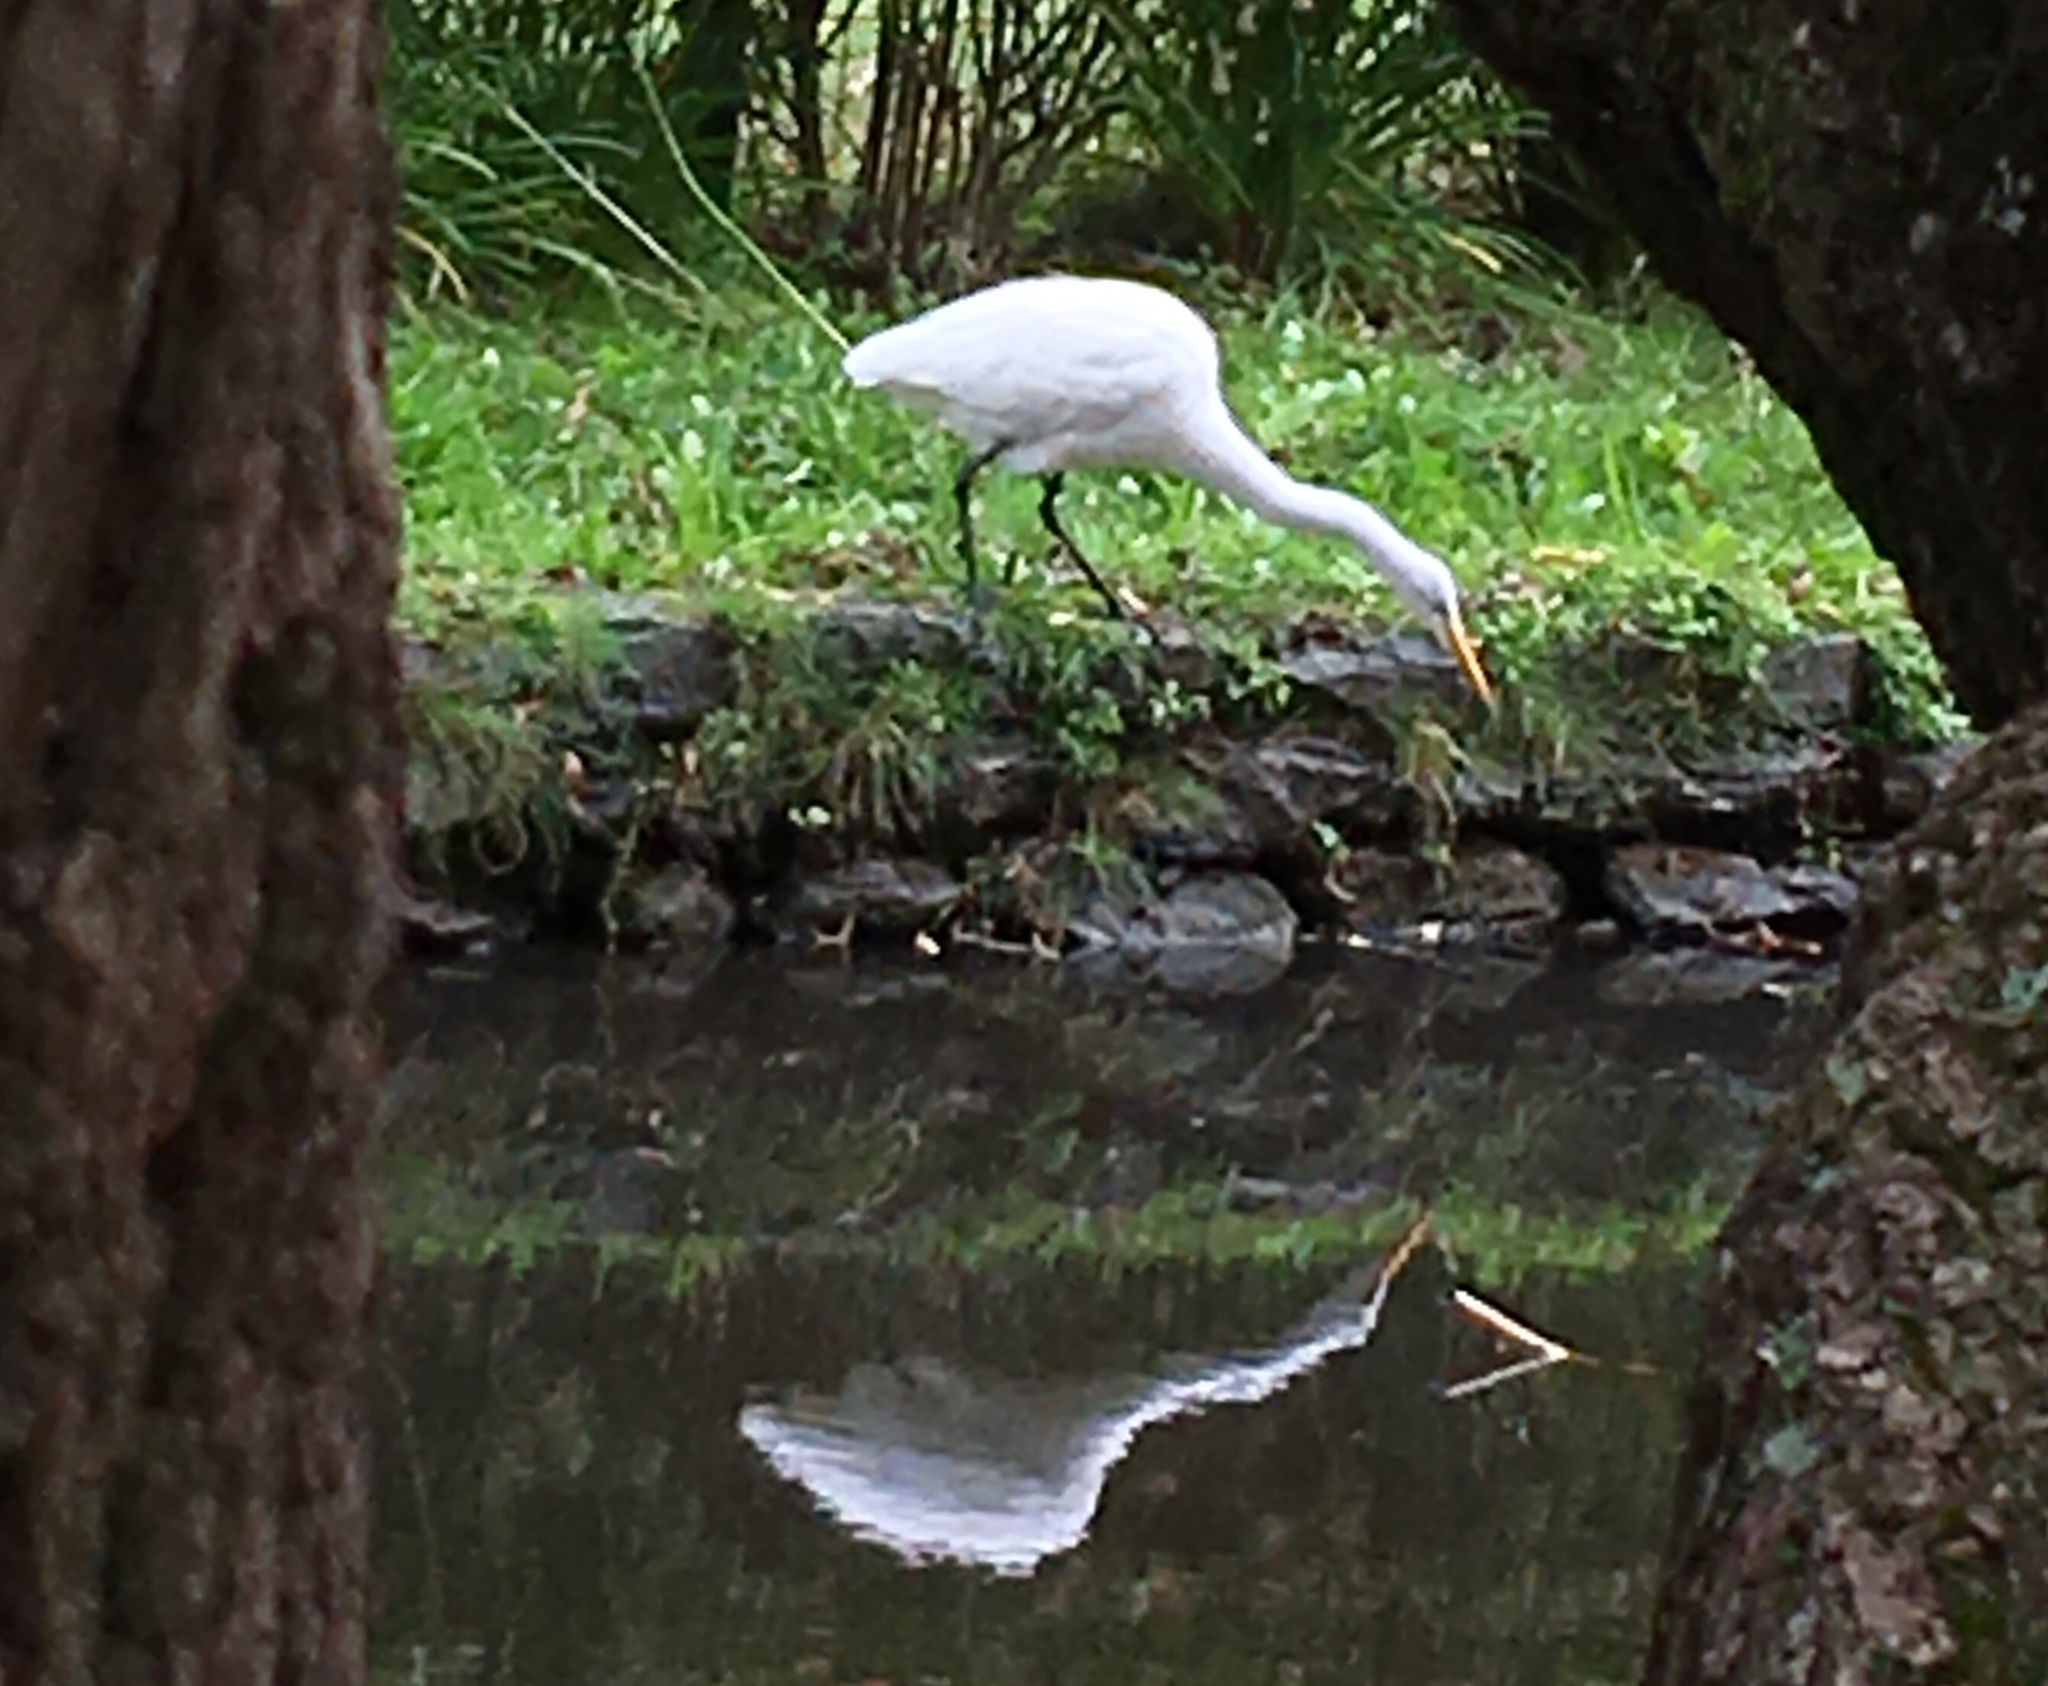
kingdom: Animalia
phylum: Chordata
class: Aves
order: Pelecaniformes
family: Ardeidae
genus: Ardea
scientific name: Ardea alba
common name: Great egret
